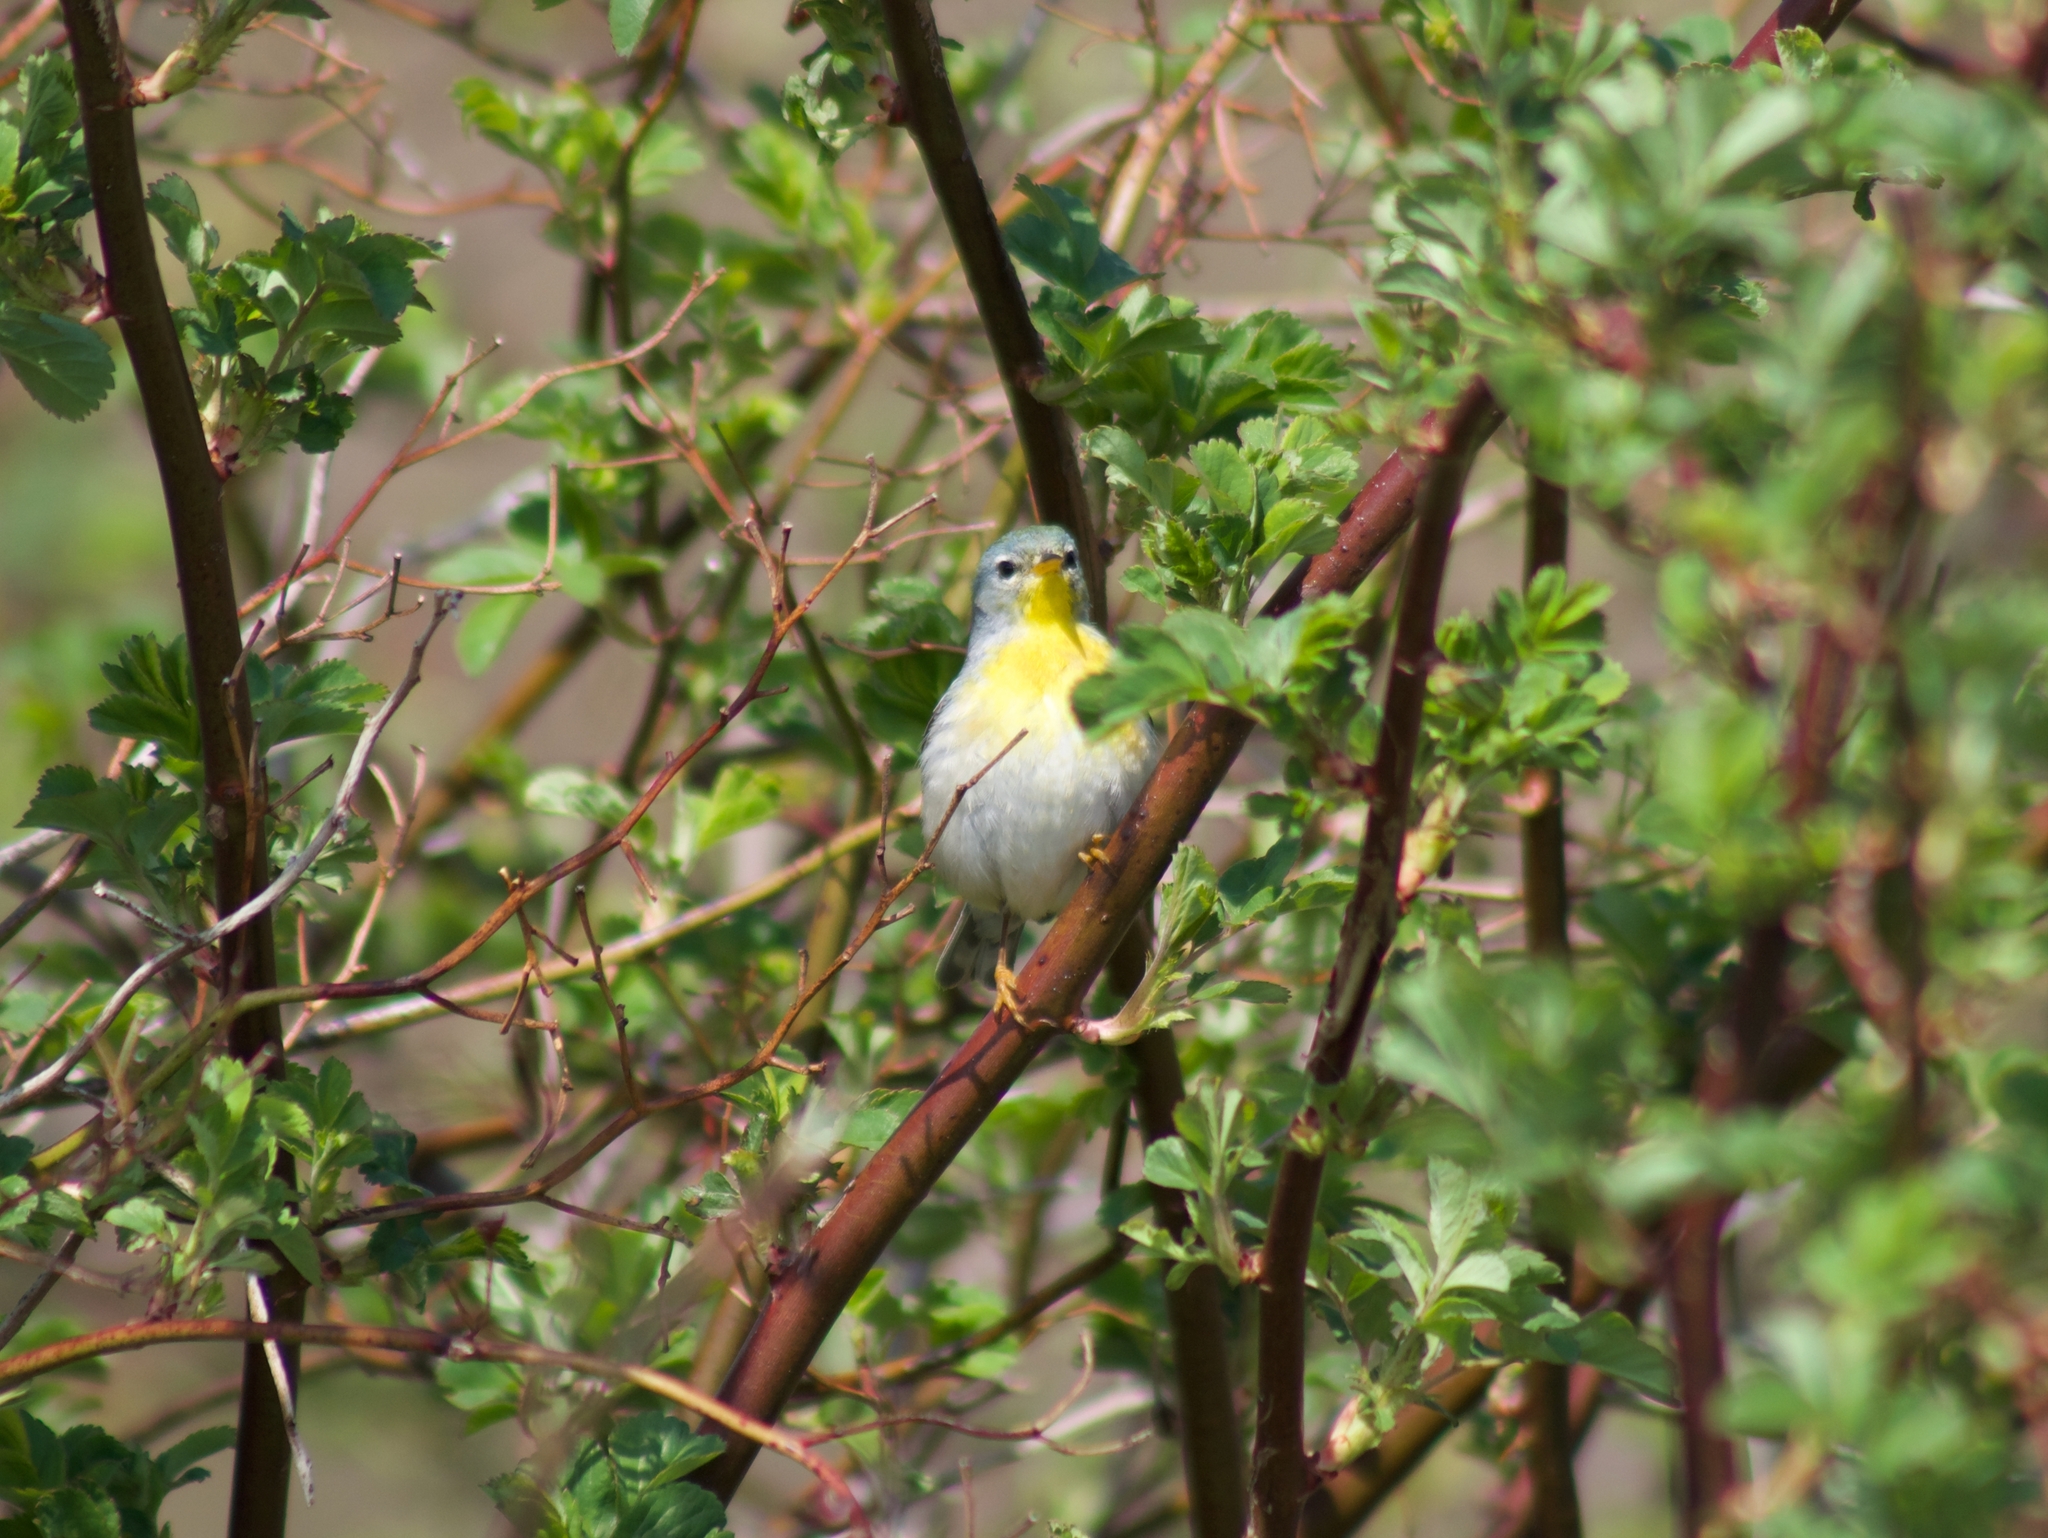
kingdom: Animalia
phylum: Chordata
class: Aves
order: Passeriformes
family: Parulidae
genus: Setophaga
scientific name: Setophaga americana
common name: Northern parula
